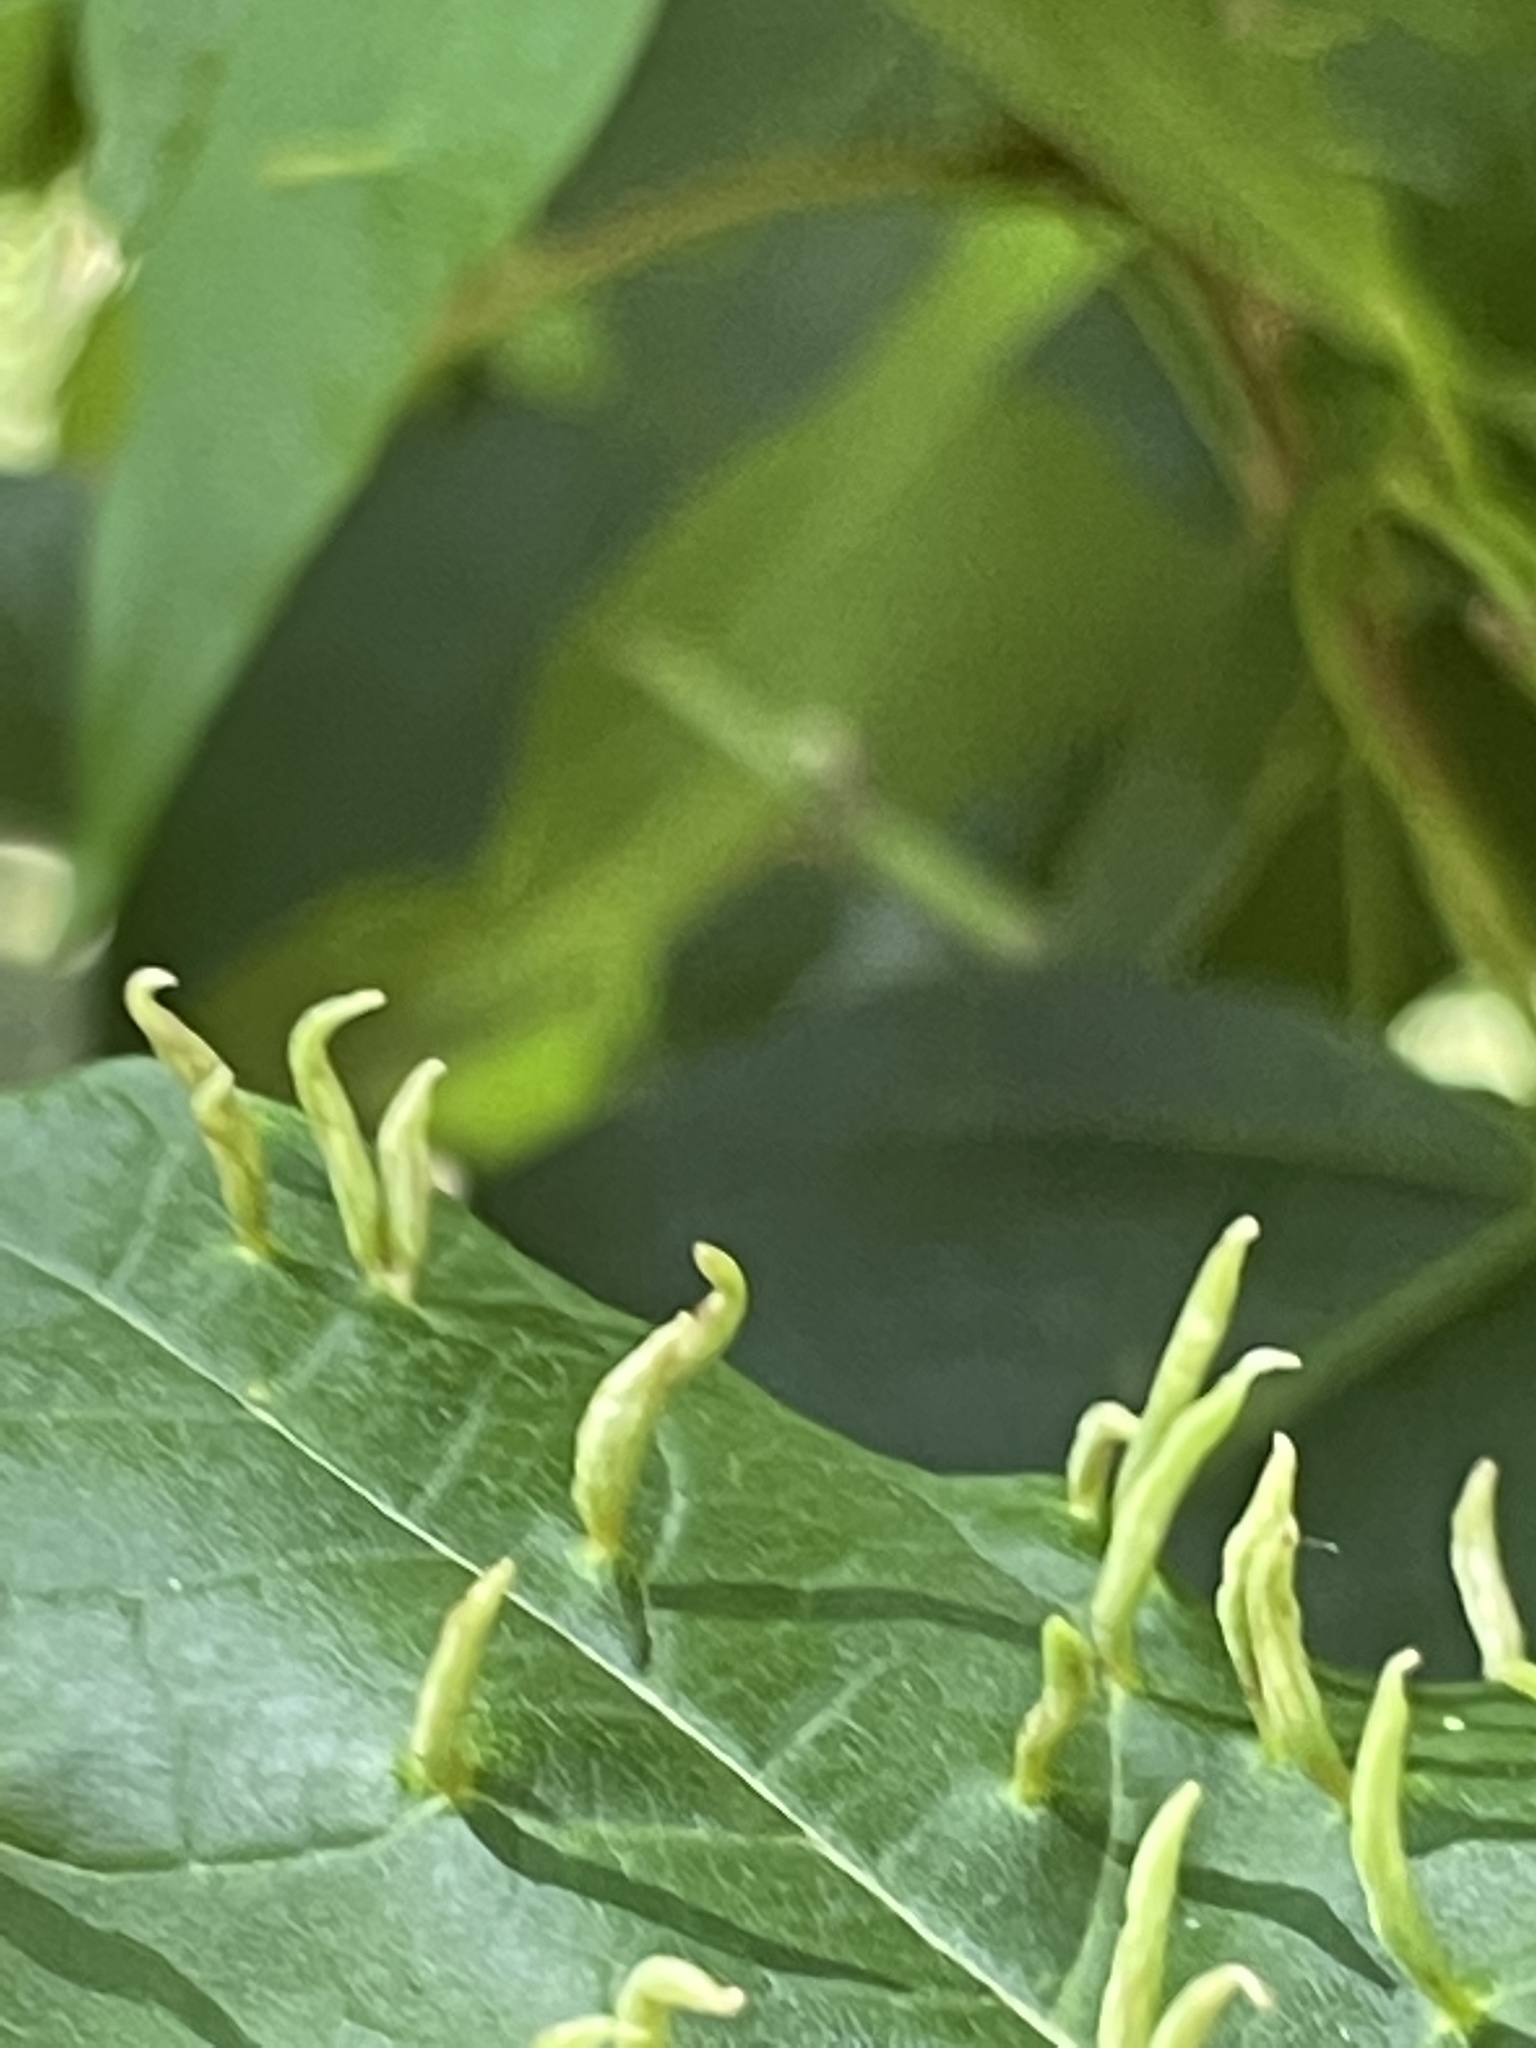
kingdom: Animalia
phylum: Arthropoda
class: Arachnida
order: Trombidiformes
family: Eriophyidae
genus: Vasates
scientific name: Vasates aceriscrumena
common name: Maple spindle gall mite
